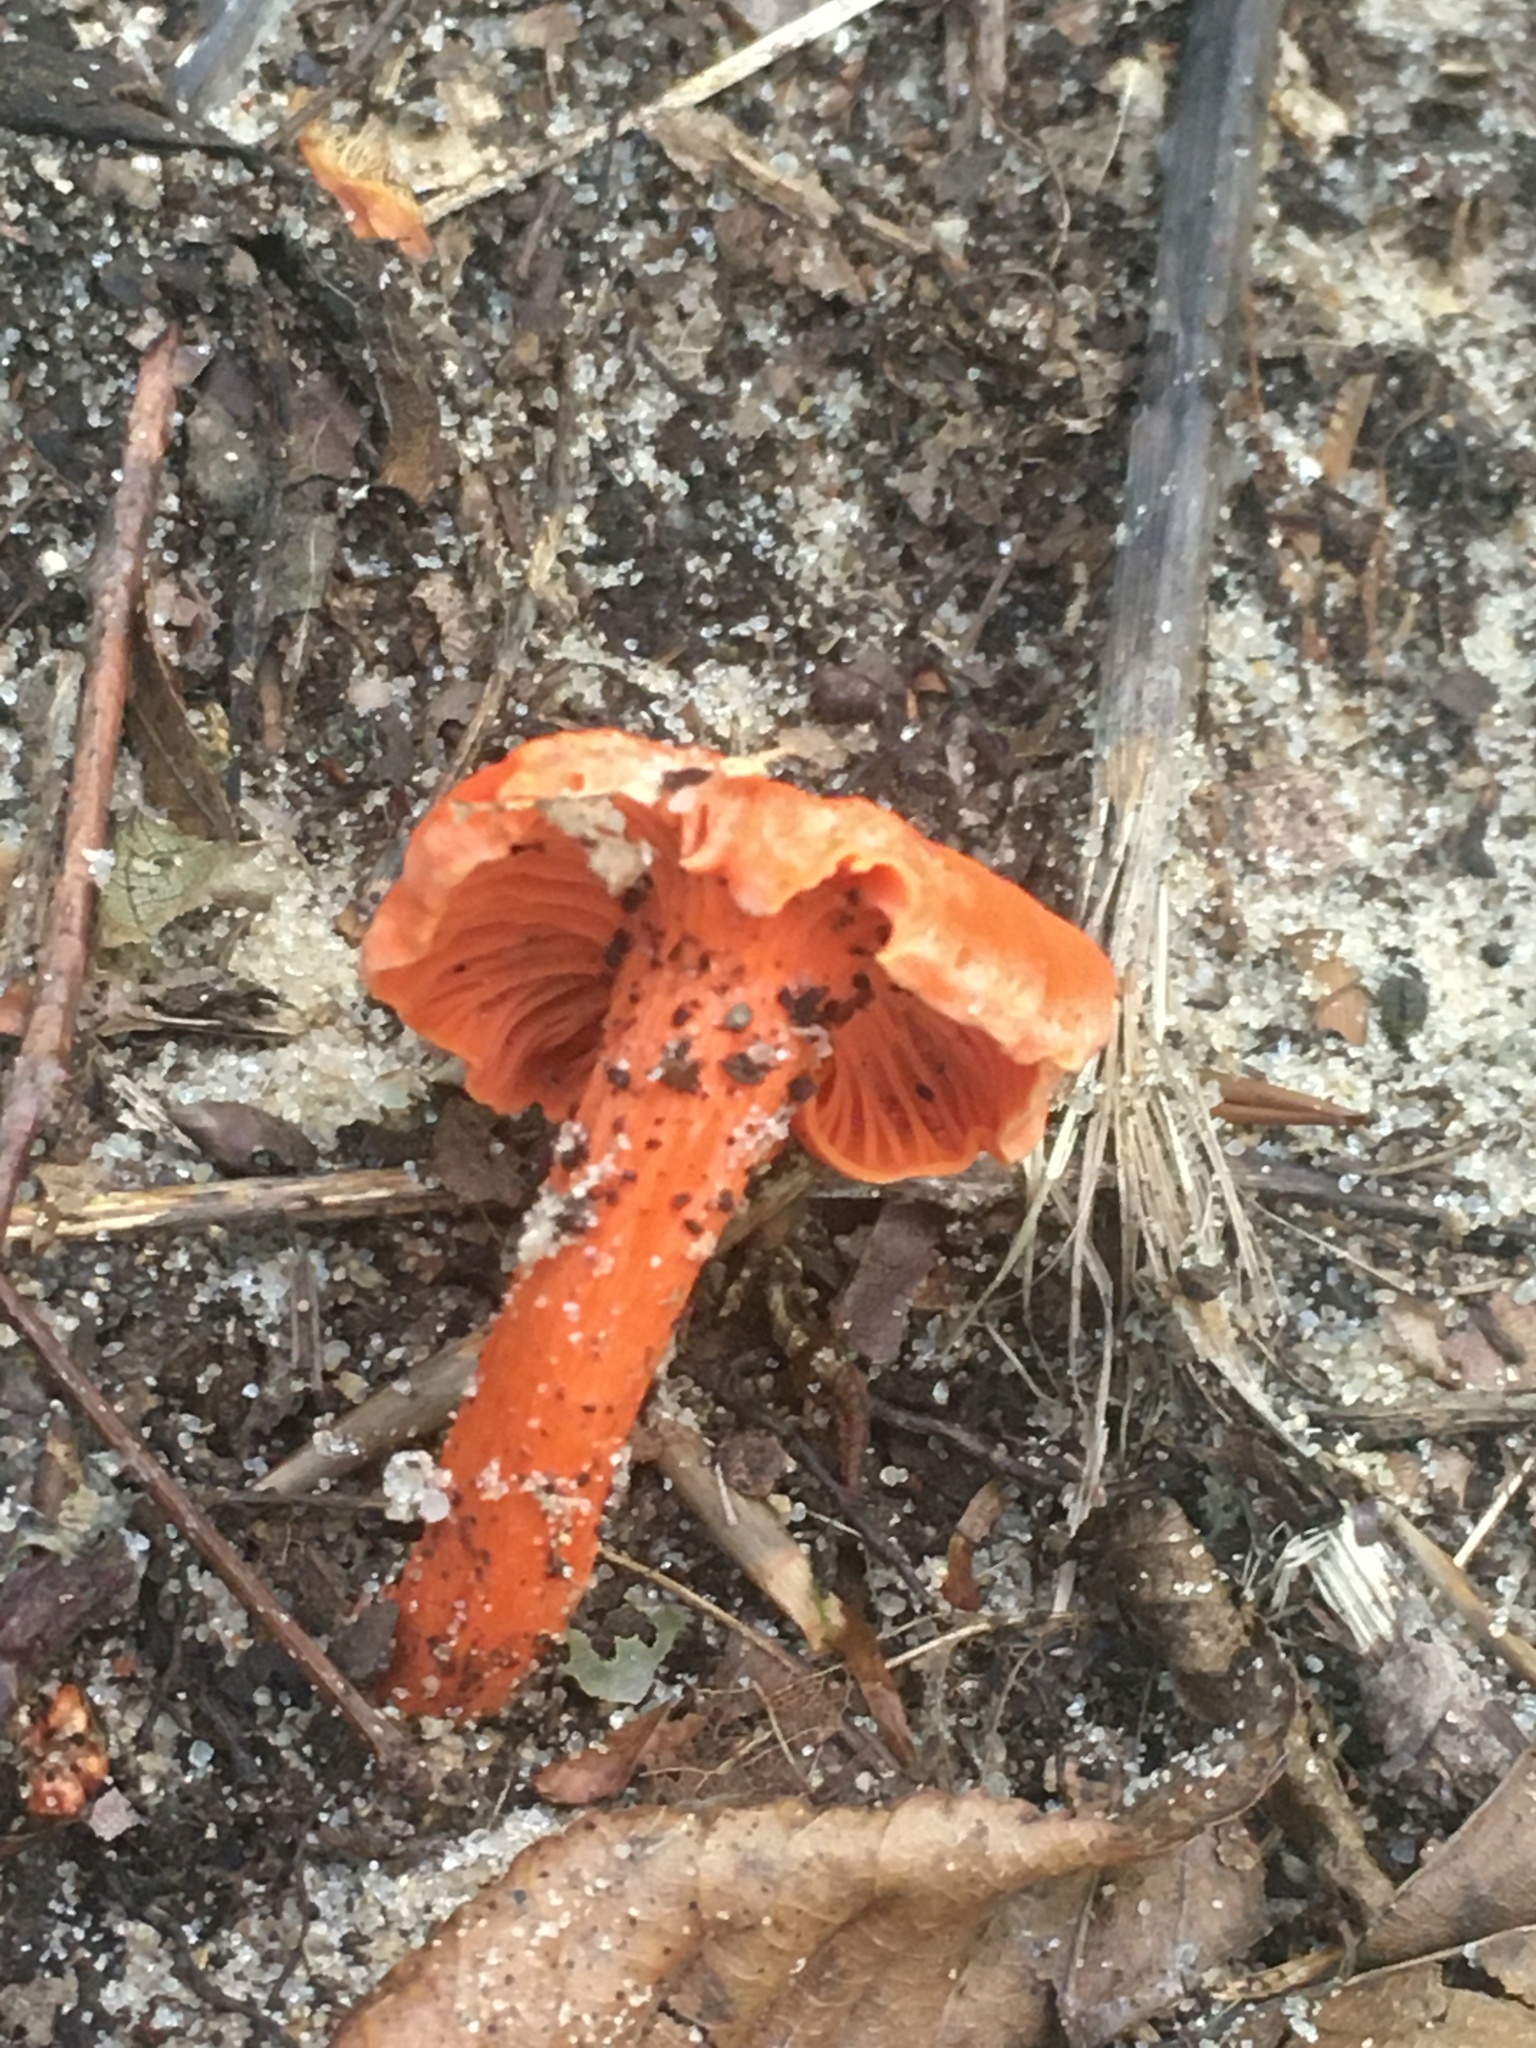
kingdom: Fungi
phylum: Basidiomycota
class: Agaricomycetes
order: Cantharellales
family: Hydnaceae
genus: Cantharellus
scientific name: Cantharellus cinnabarinus
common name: Cinnabar chanterelle
